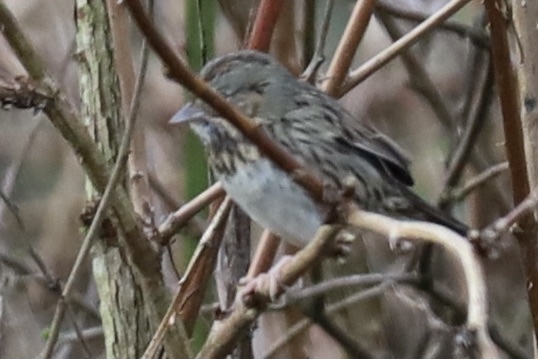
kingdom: Animalia
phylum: Chordata
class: Aves
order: Passeriformes
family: Passerellidae
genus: Melospiza
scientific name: Melospiza lincolnii
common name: Lincoln's sparrow
